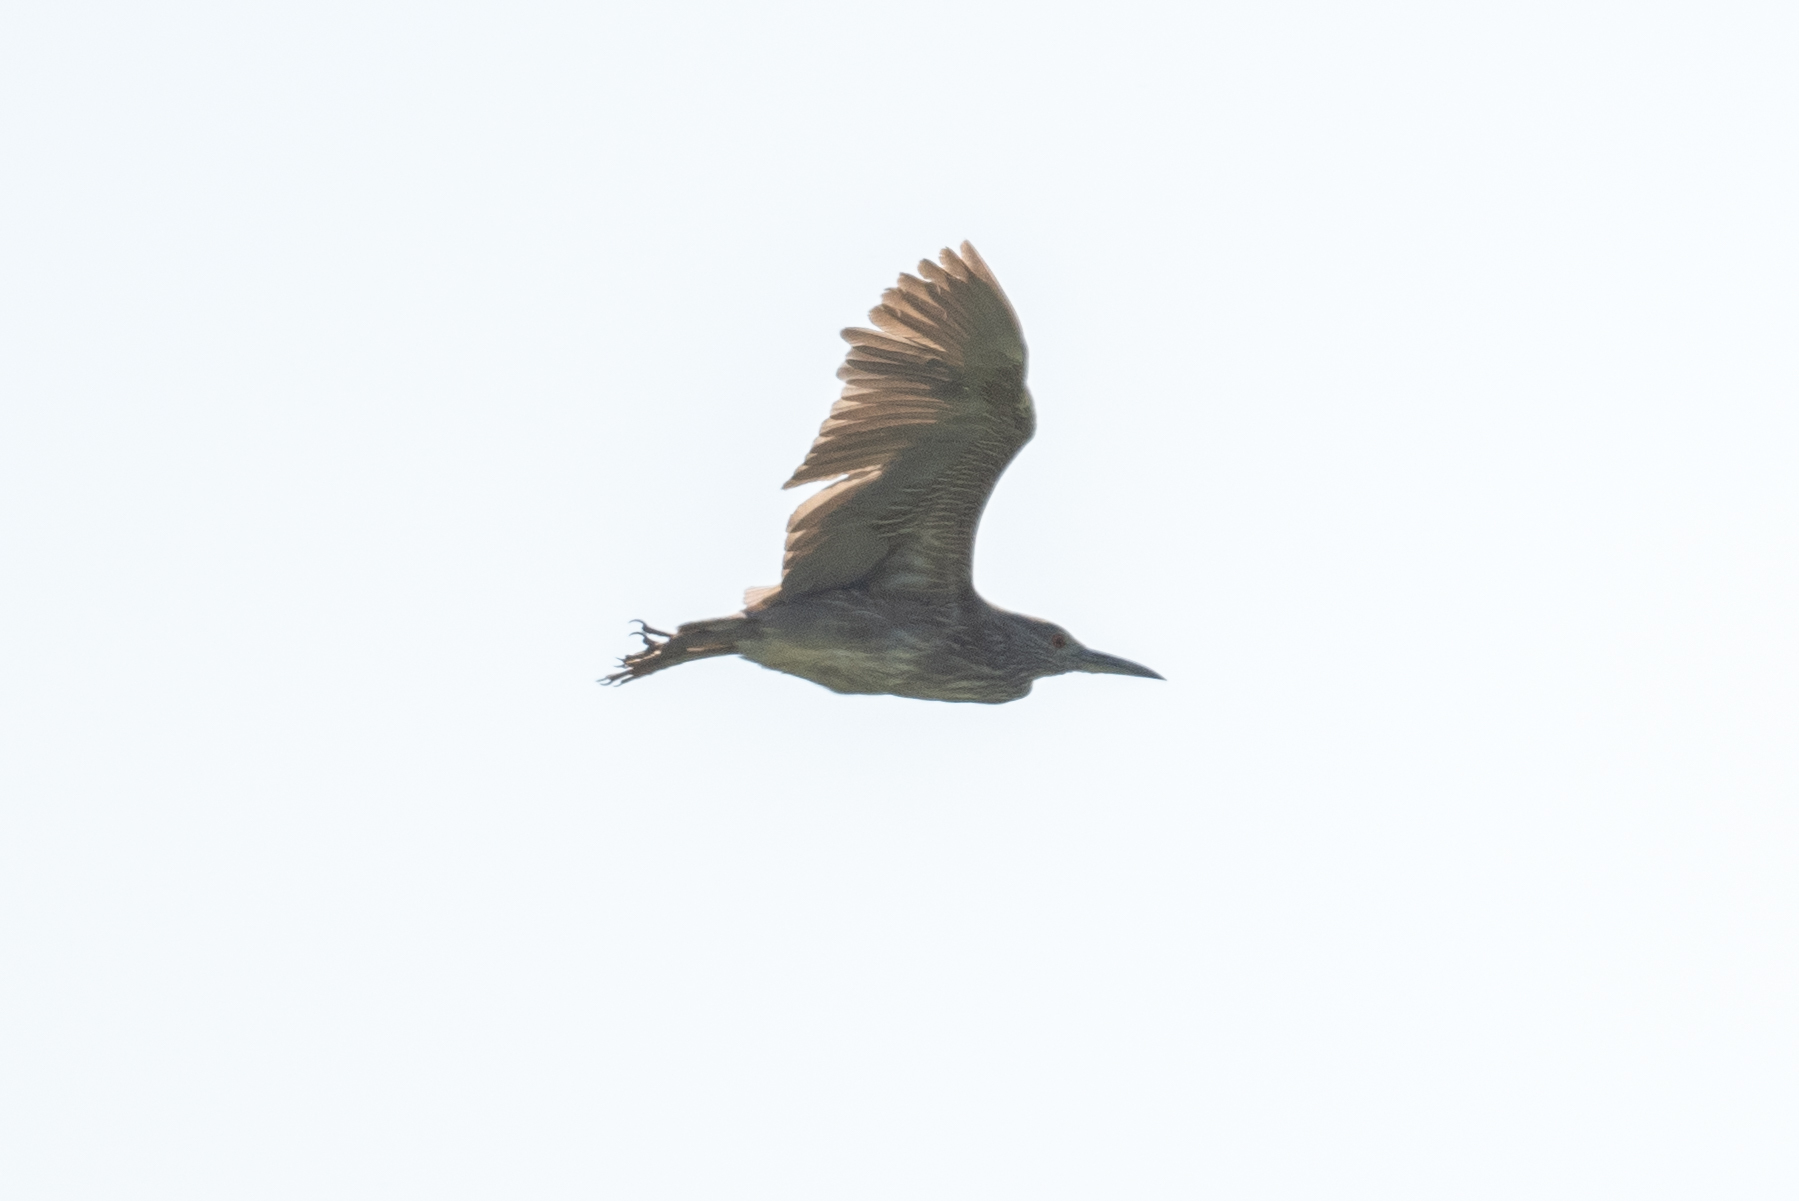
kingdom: Animalia
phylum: Chordata
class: Aves
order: Pelecaniformes
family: Ardeidae
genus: Nycticorax
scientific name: Nycticorax nycticorax
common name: Black-crowned night heron
